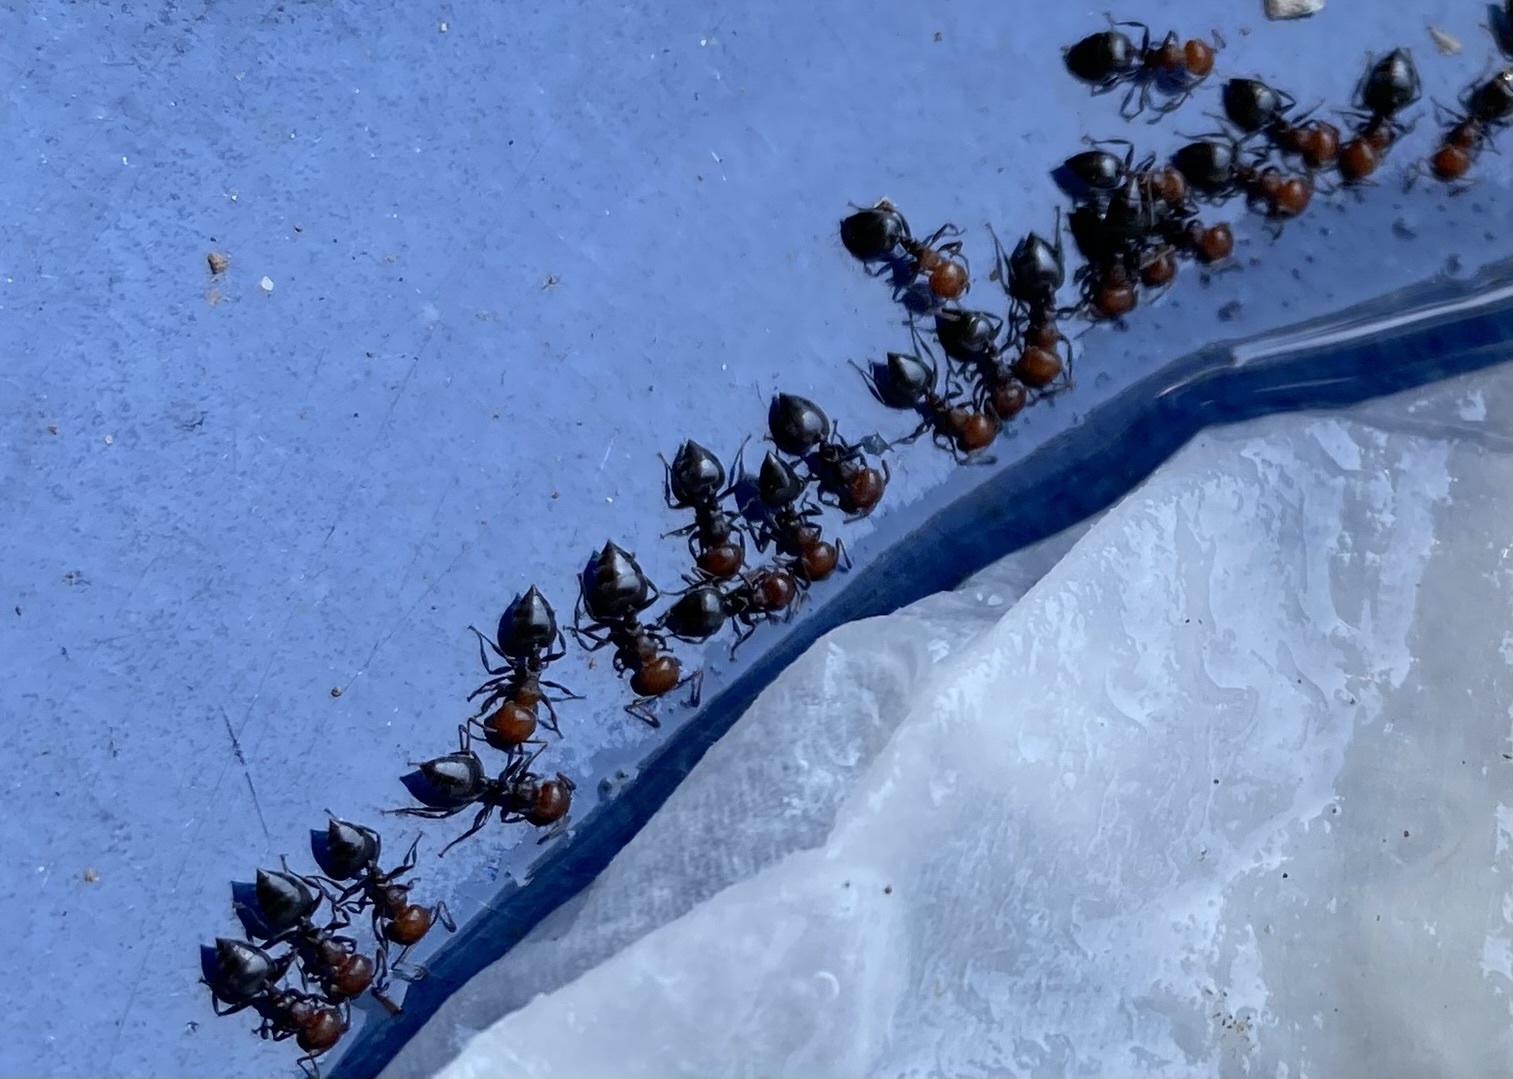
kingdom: Animalia
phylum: Arthropoda
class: Insecta
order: Hymenoptera
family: Formicidae
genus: Crematogaster
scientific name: Crematogaster scutellaris
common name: Fourmi du liège
